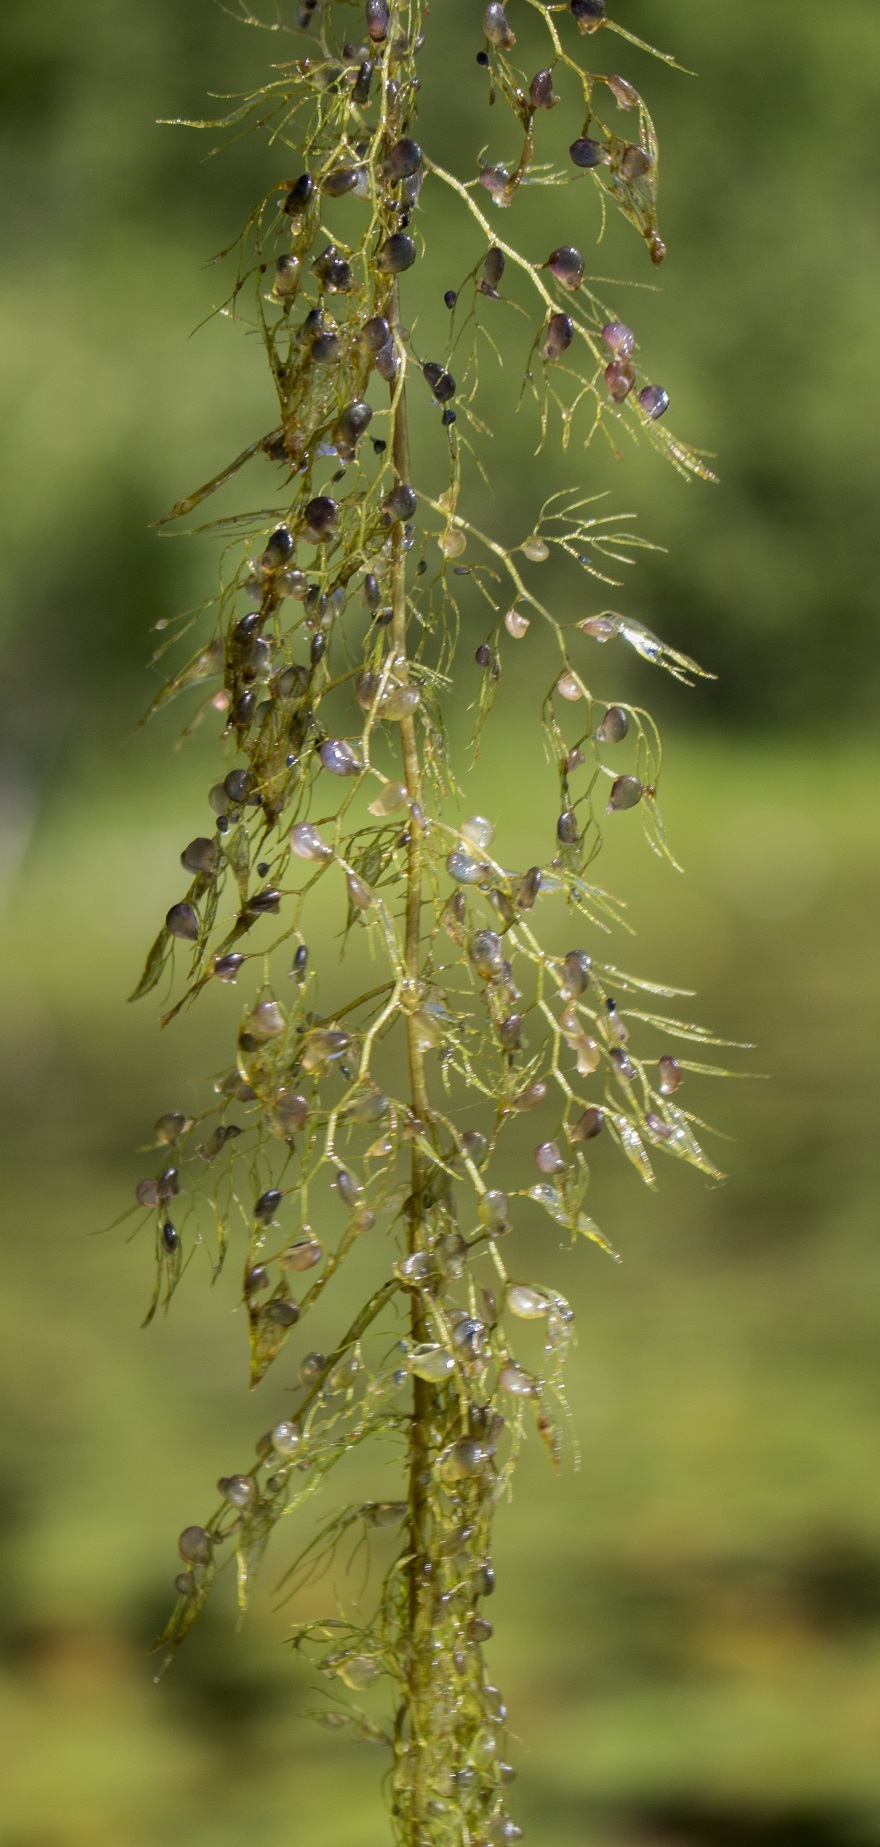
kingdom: Plantae
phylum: Tracheophyta
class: Magnoliopsida
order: Lamiales
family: Lentibulariaceae
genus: Utricularia
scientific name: Utricularia macrorhiza
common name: Common bladderwort
